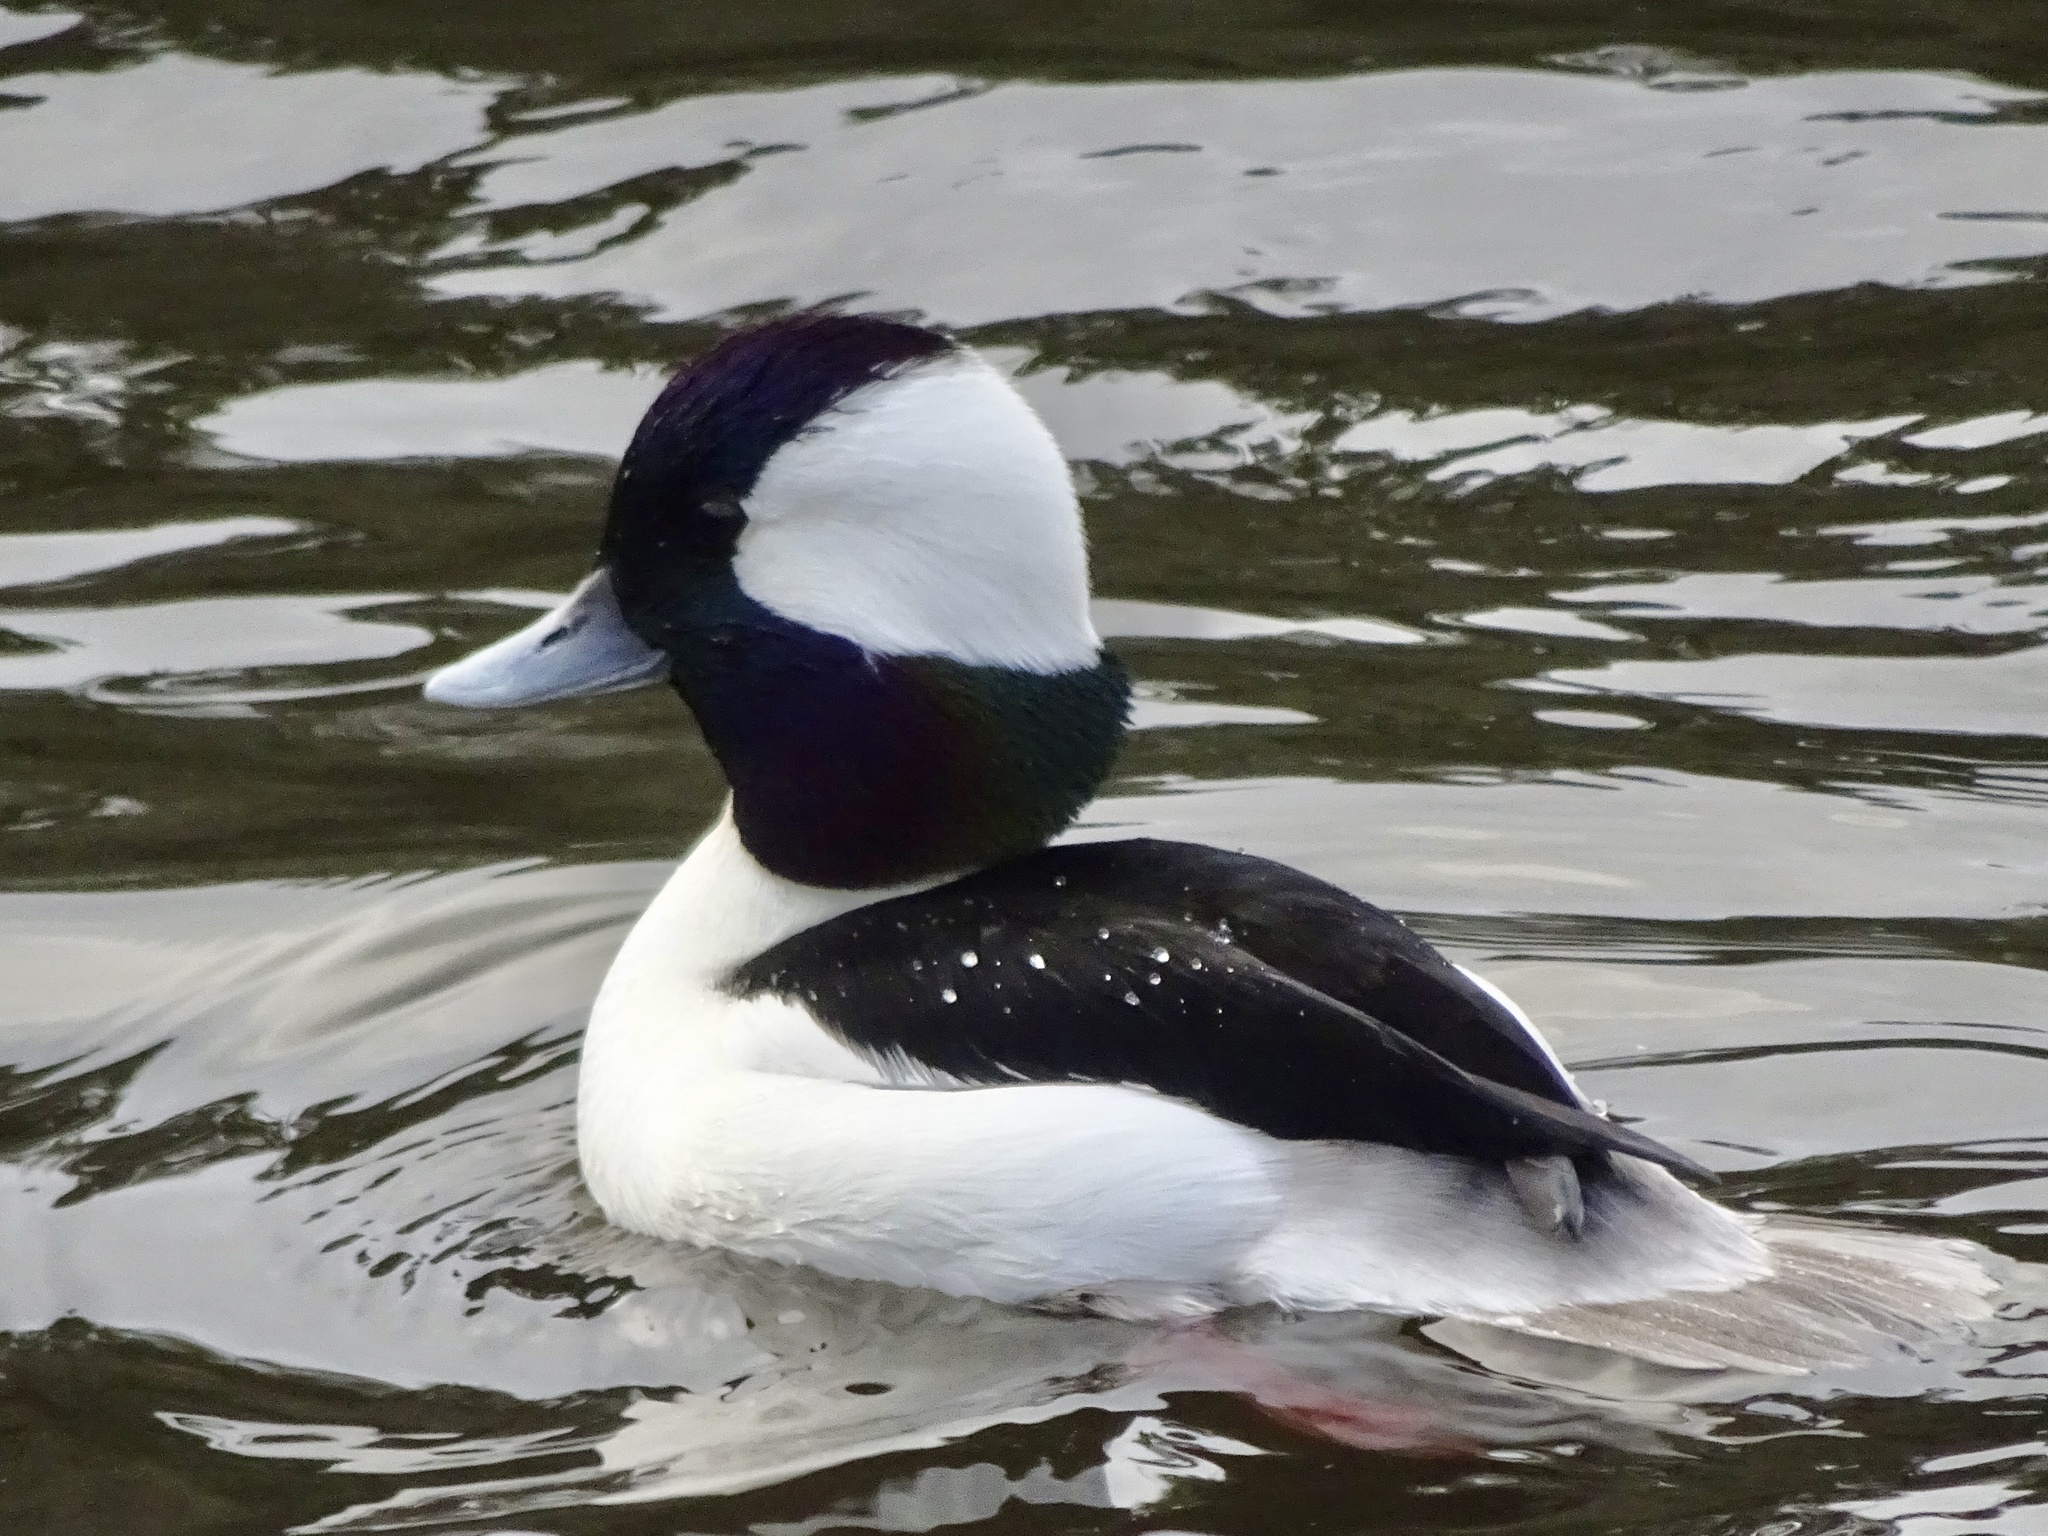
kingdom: Animalia
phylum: Chordata
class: Aves
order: Anseriformes
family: Anatidae
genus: Bucephala
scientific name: Bucephala albeola
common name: Bufflehead
